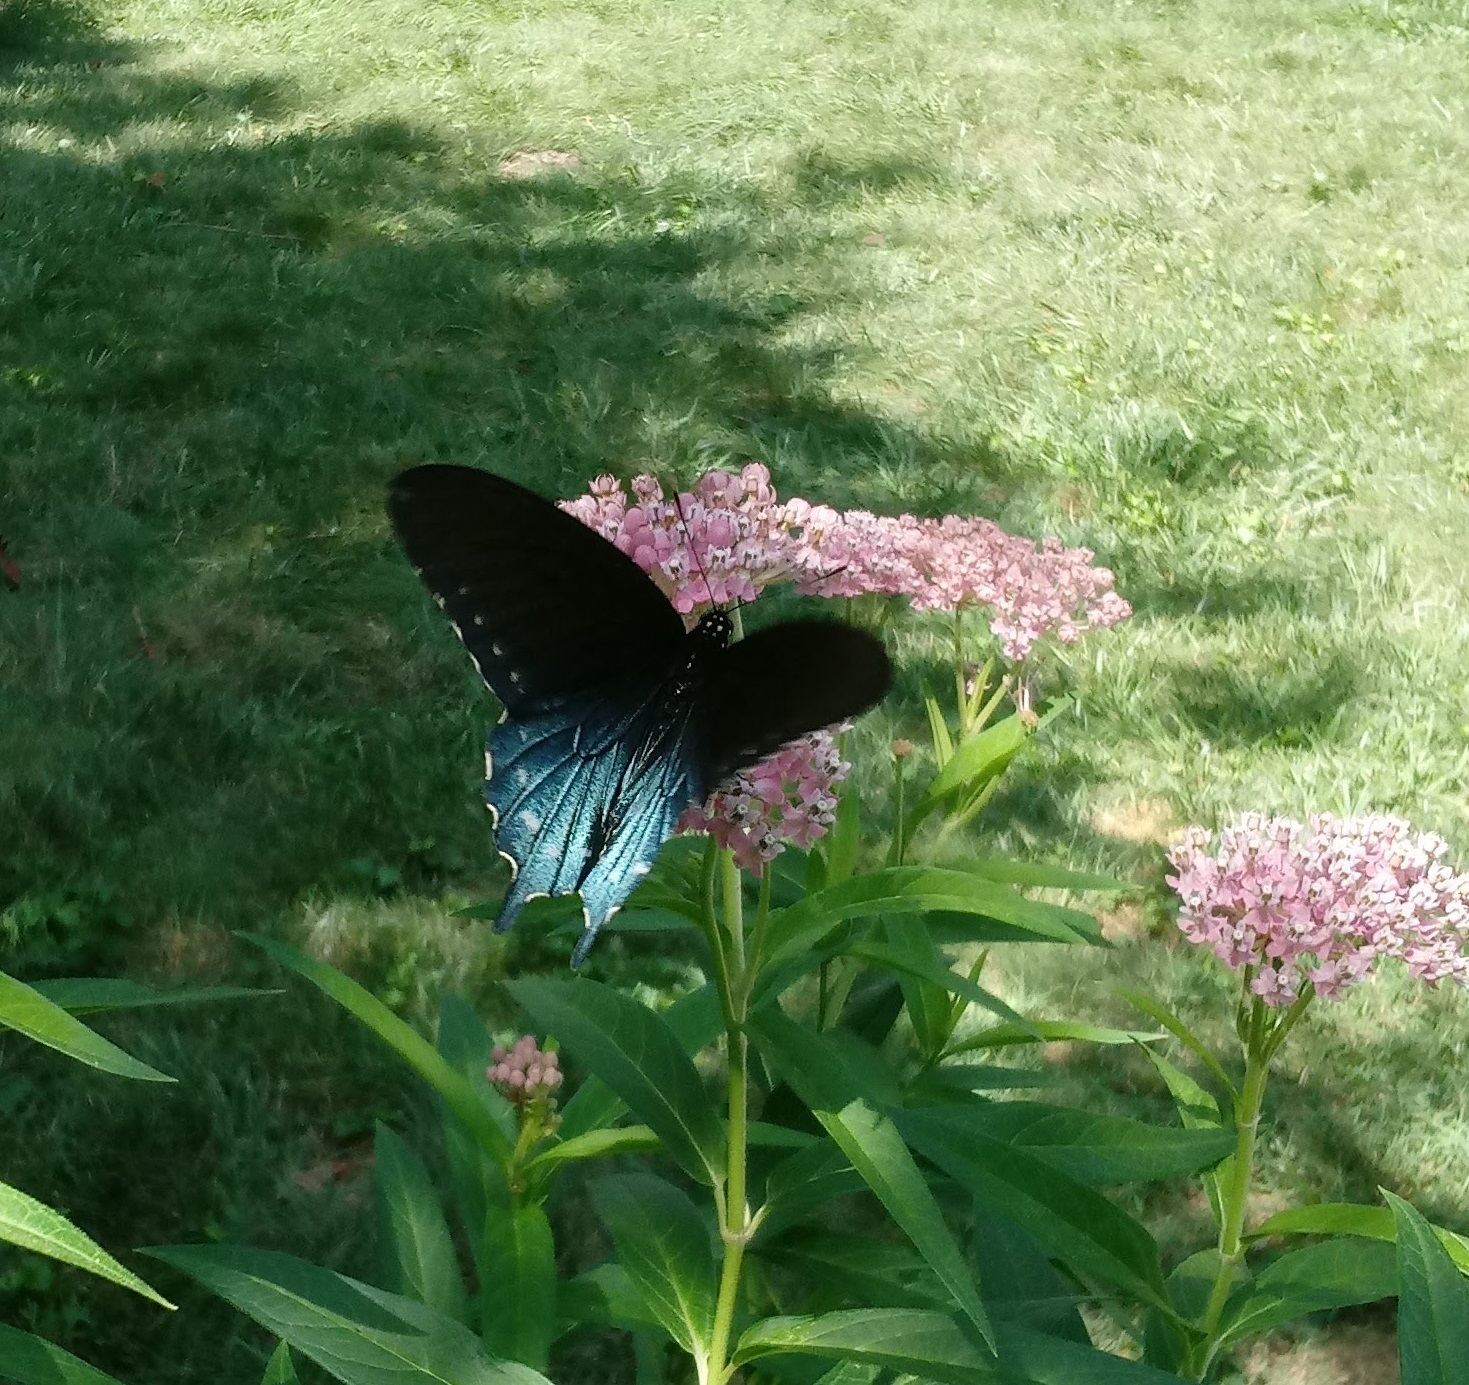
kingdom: Animalia
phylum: Arthropoda
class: Insecta
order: Lepidoptera
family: Papilionidae
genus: Battus
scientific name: Battus philenor
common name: Pipevine swallowtail
